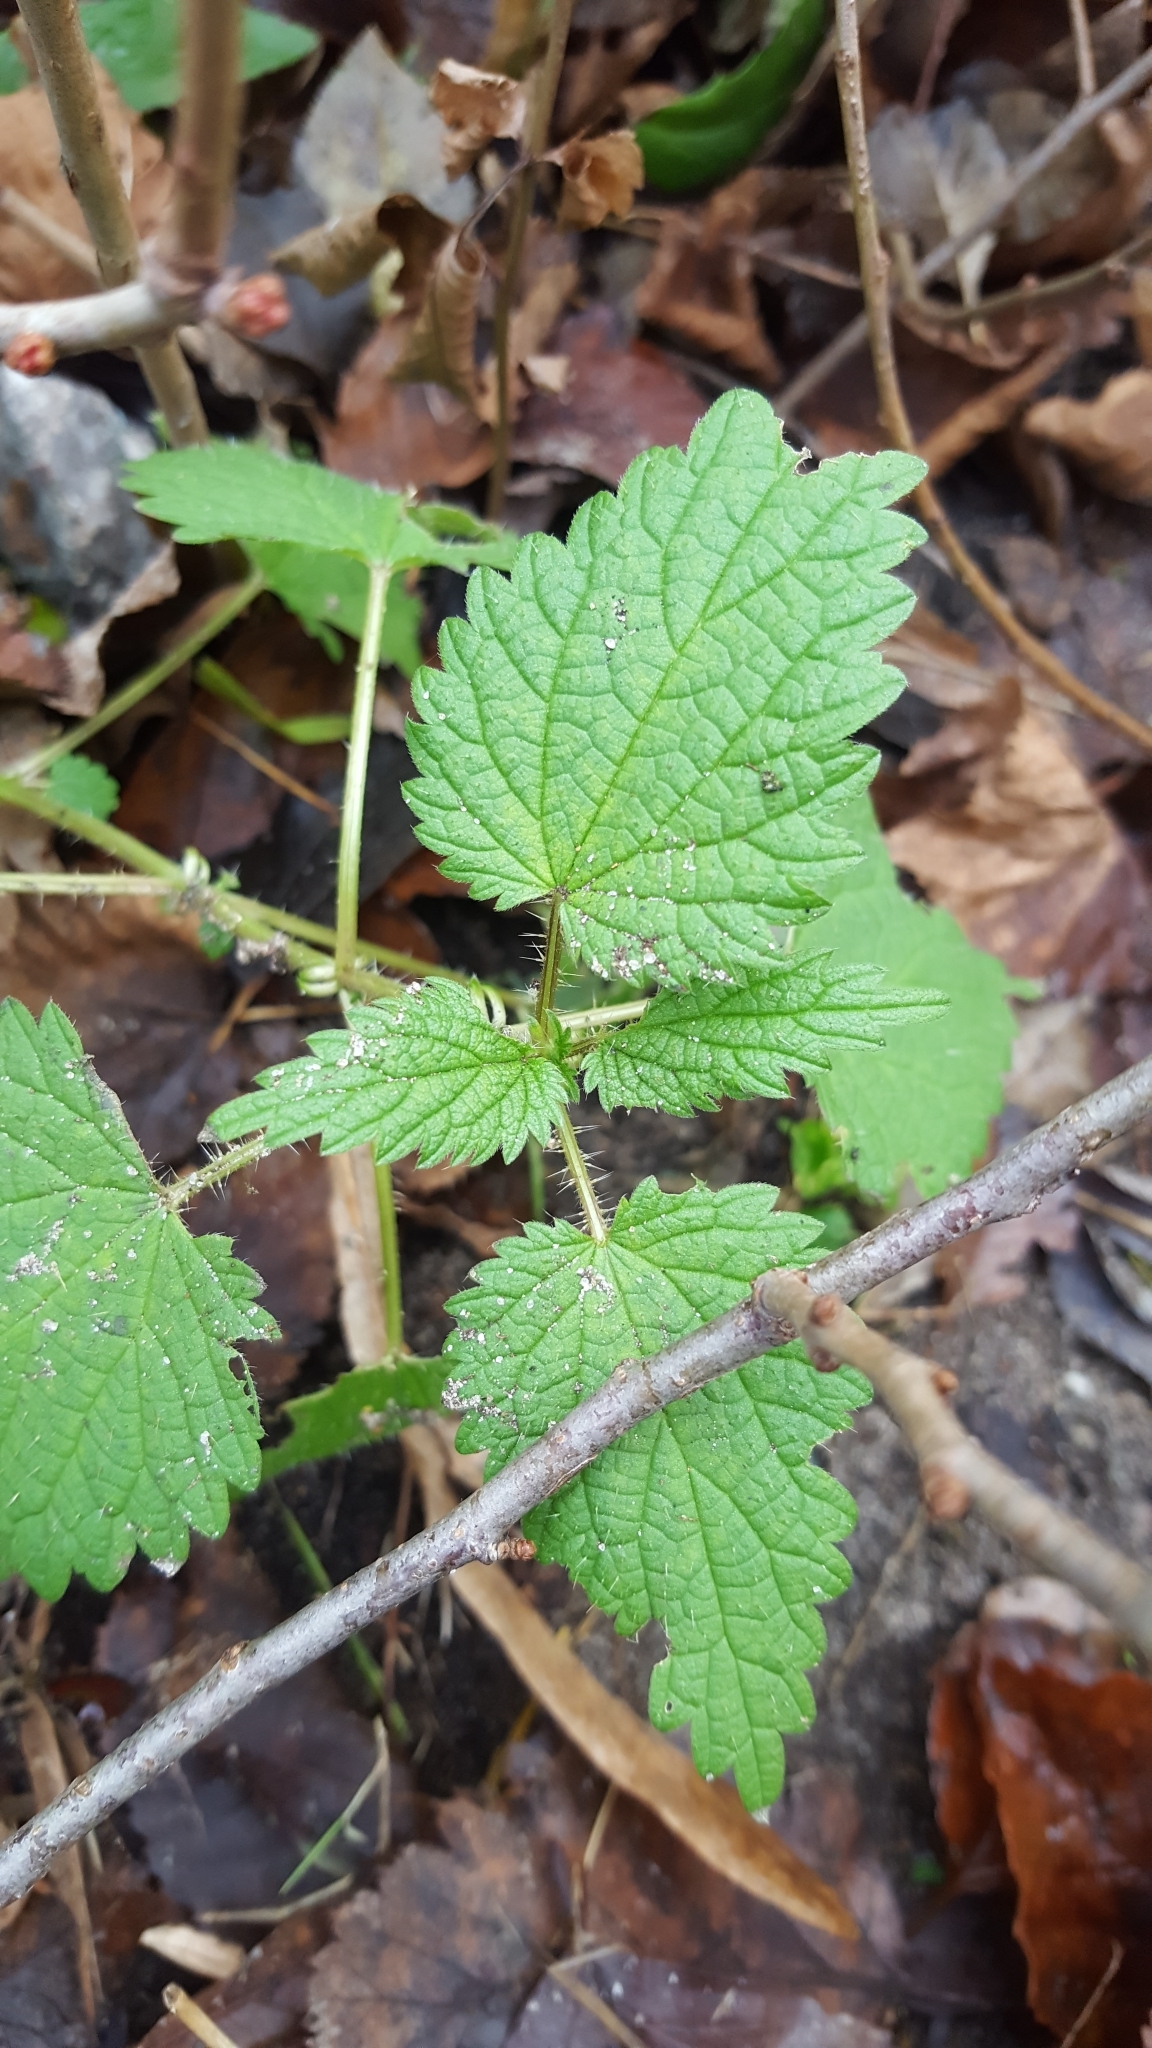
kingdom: Plantae
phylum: Tracheophyta
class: Magnoliopsida
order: Rosales
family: Urticaceae
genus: Urtica
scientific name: Urtica dioica
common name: Common nettle
